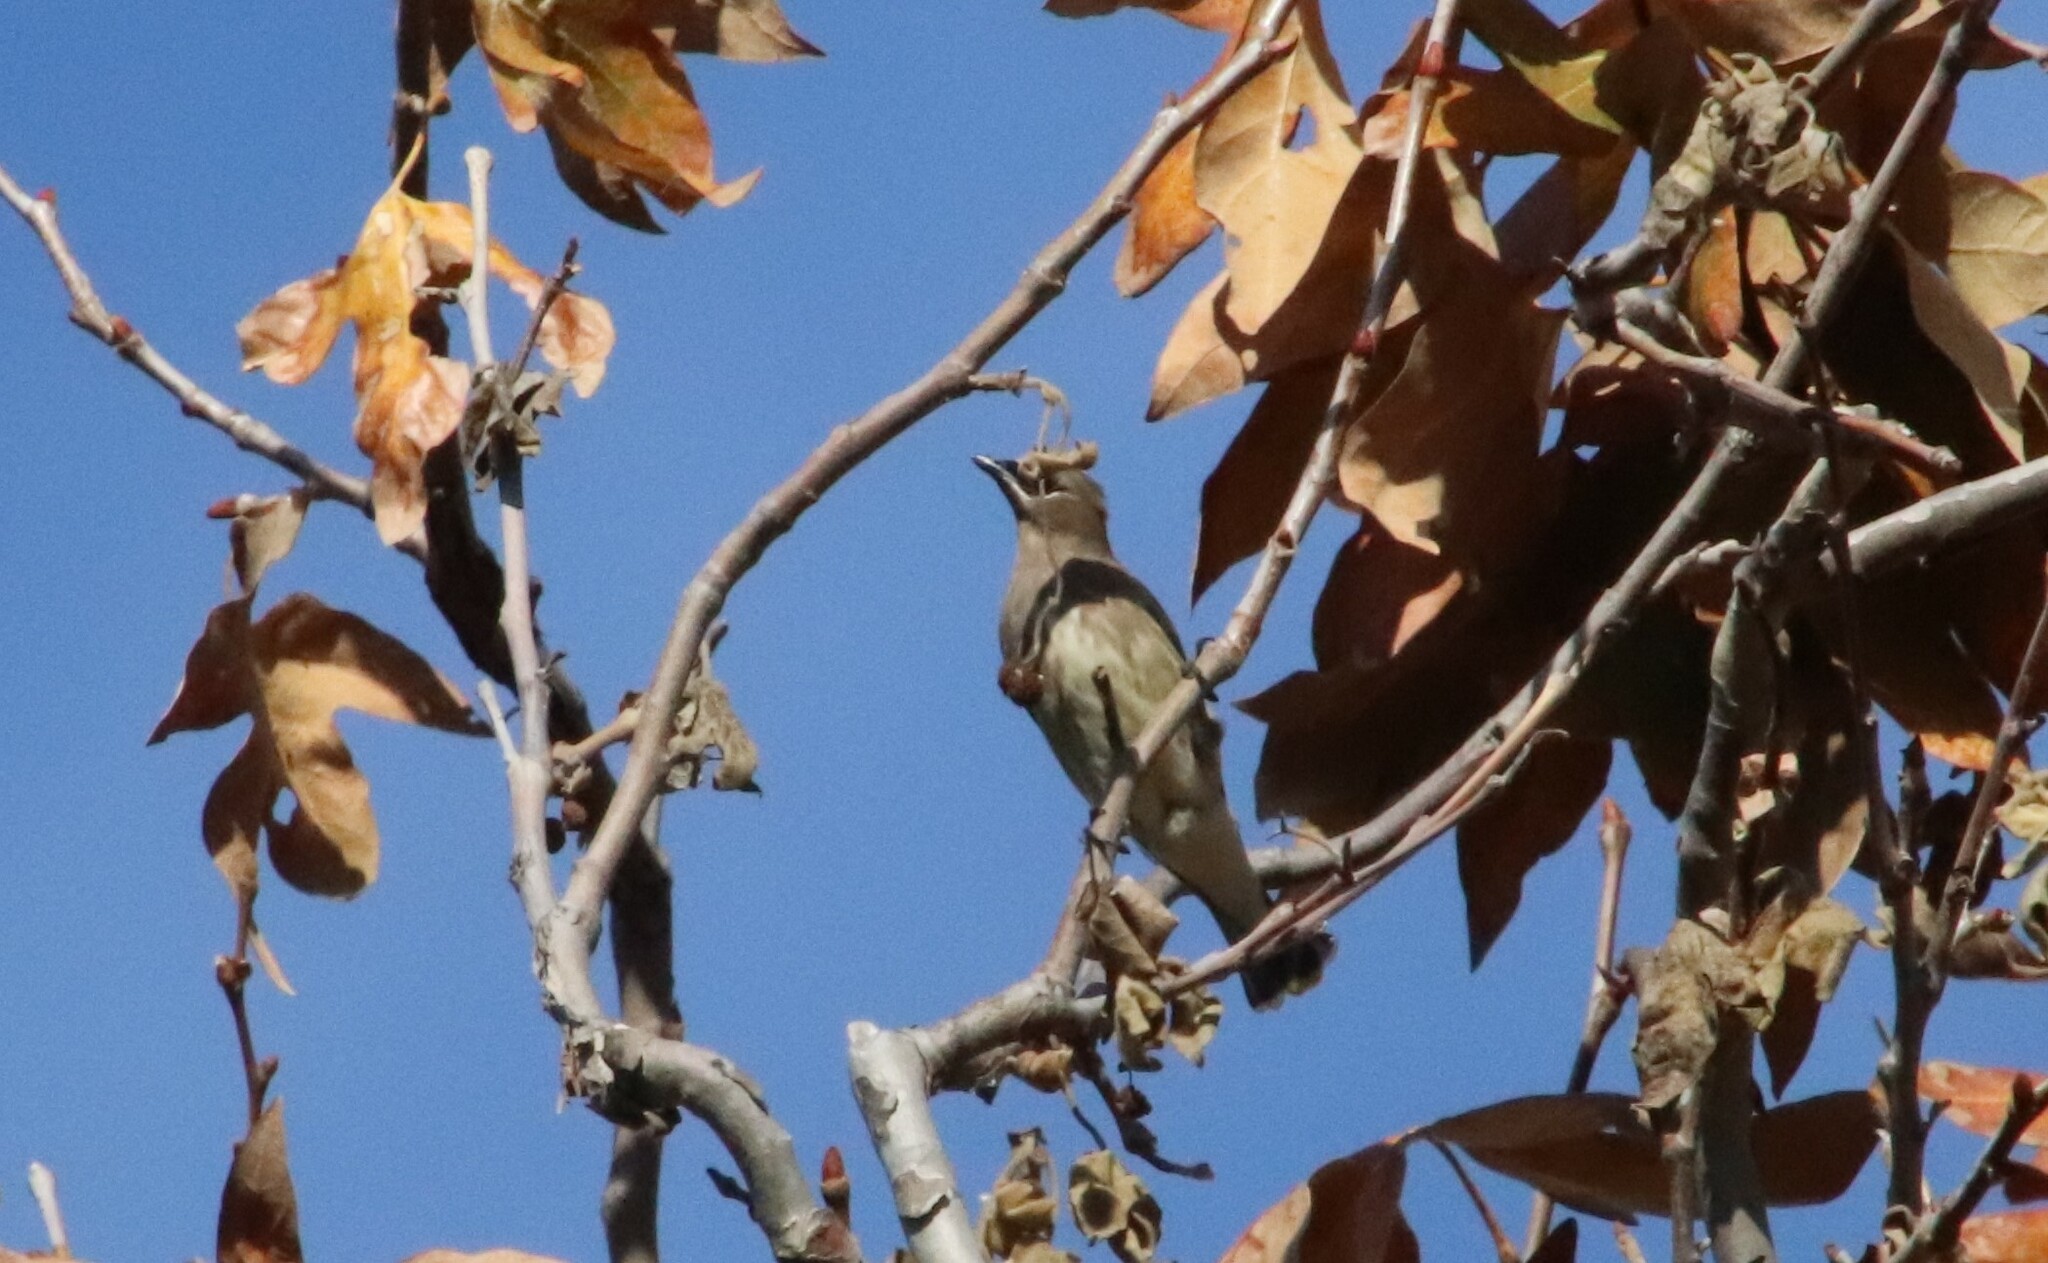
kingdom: Animalia
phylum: Chordata
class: Aves
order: Passeriformes
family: Bombycillidae
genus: Bombycilla
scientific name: Bombycilla cedrorum
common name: Cedar waxwing
